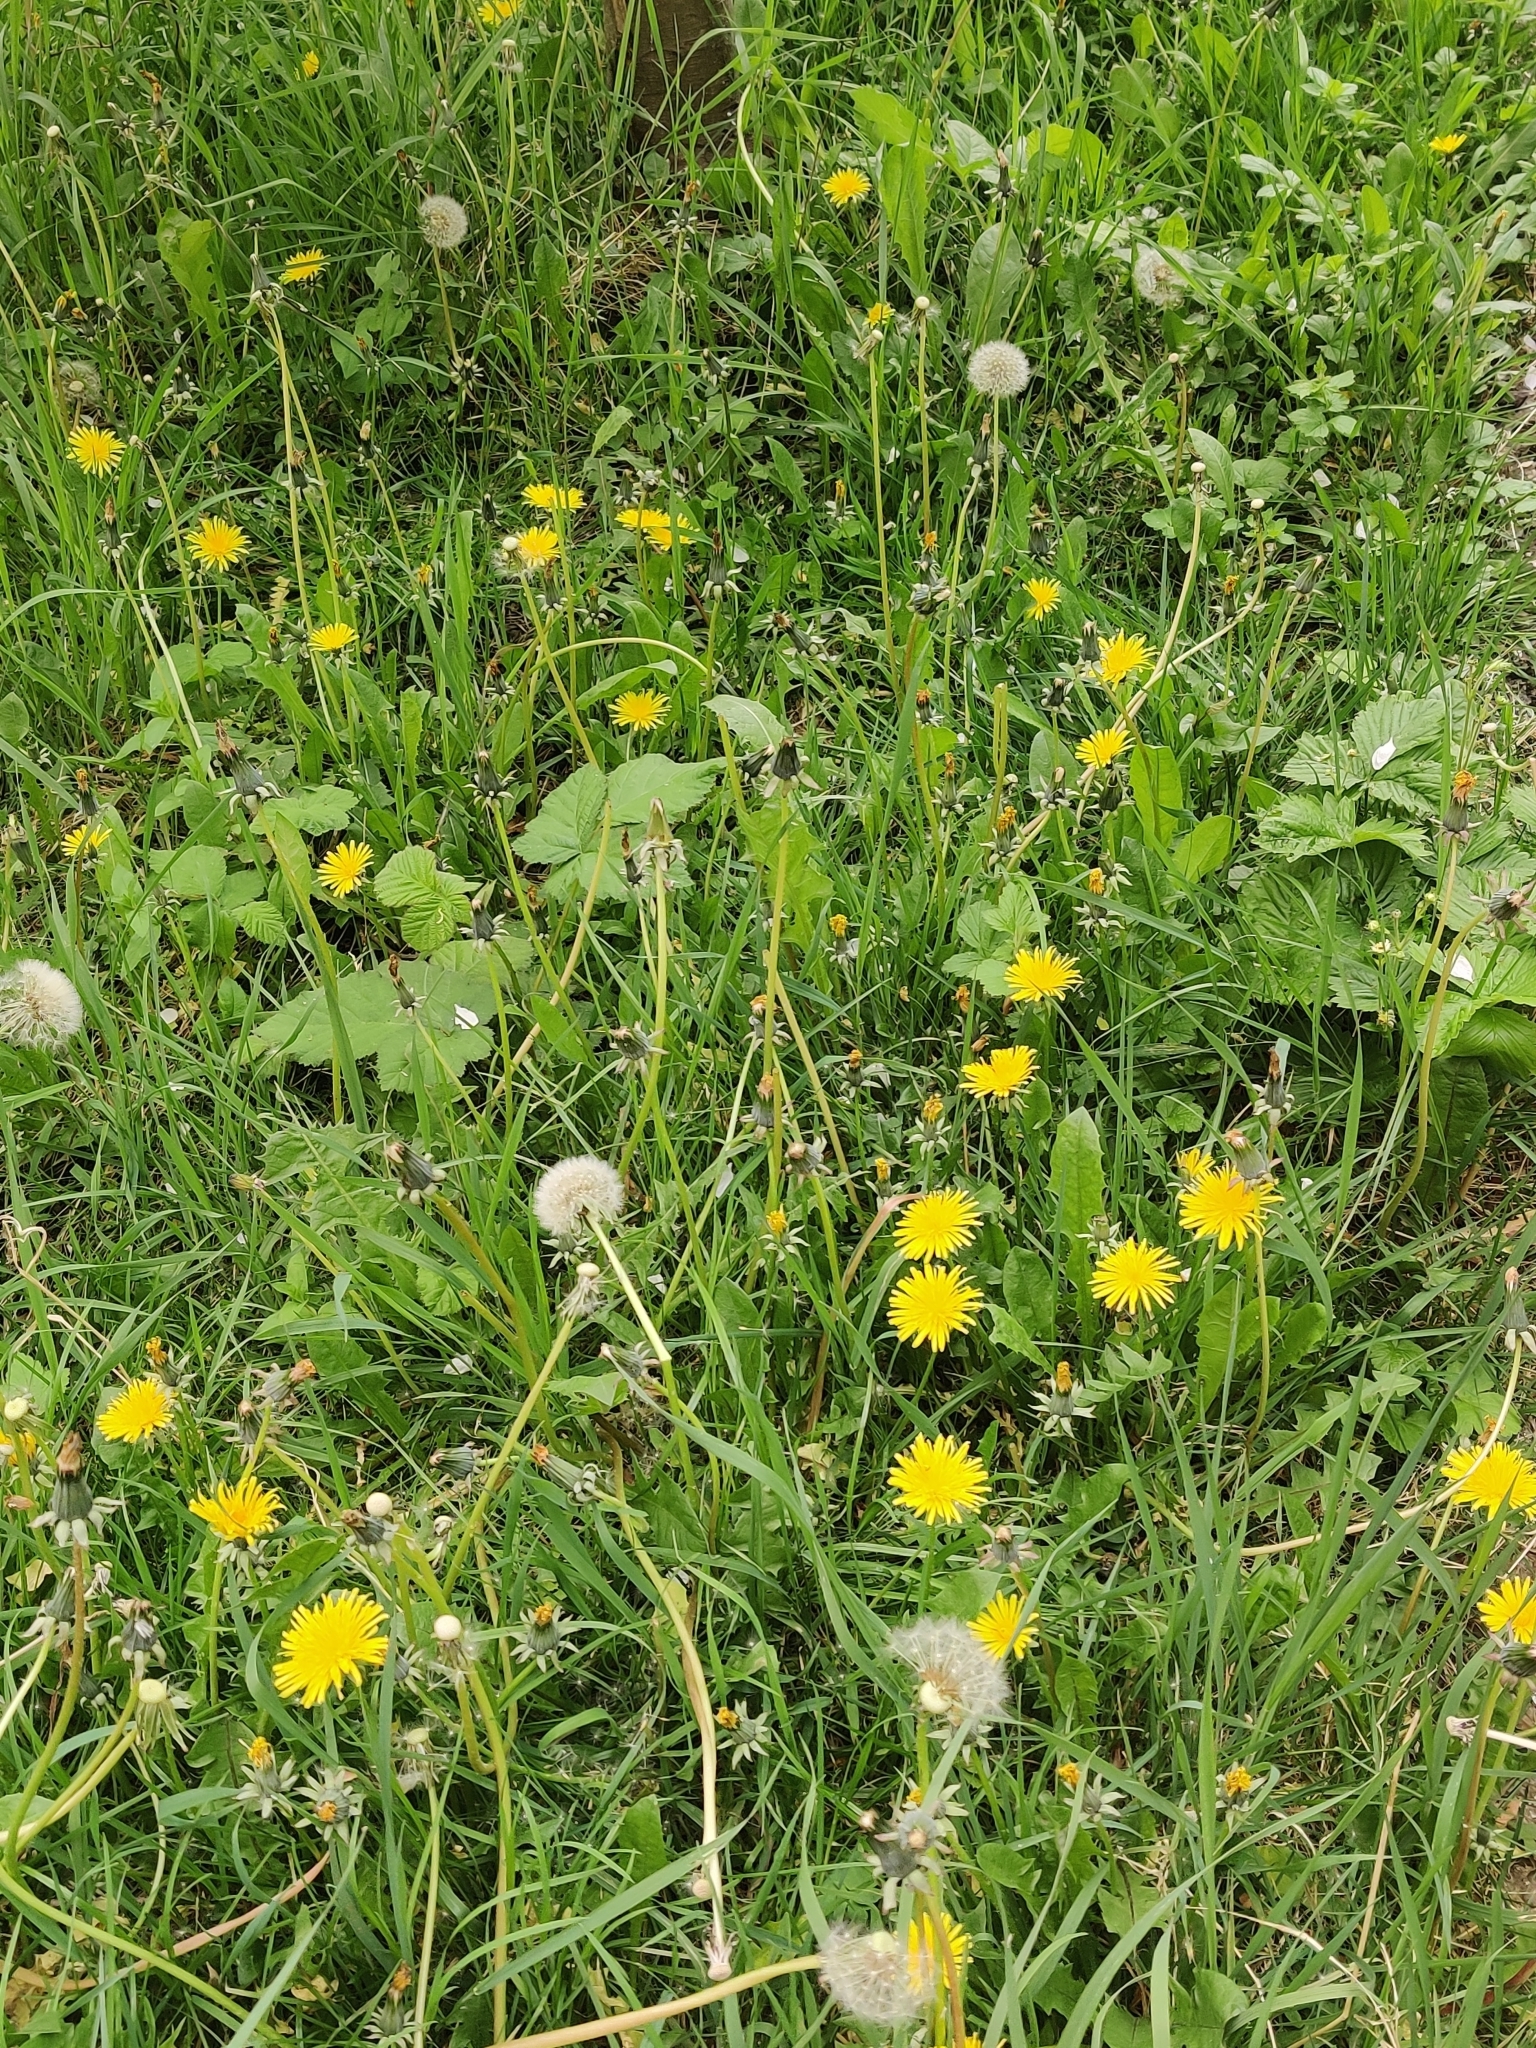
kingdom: Plantae
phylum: Tracheophyta
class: Magnoliopsida
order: Asterales
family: Asteraceae
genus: Taraxacum
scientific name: Taraxacum officinale
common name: Common dandelion
